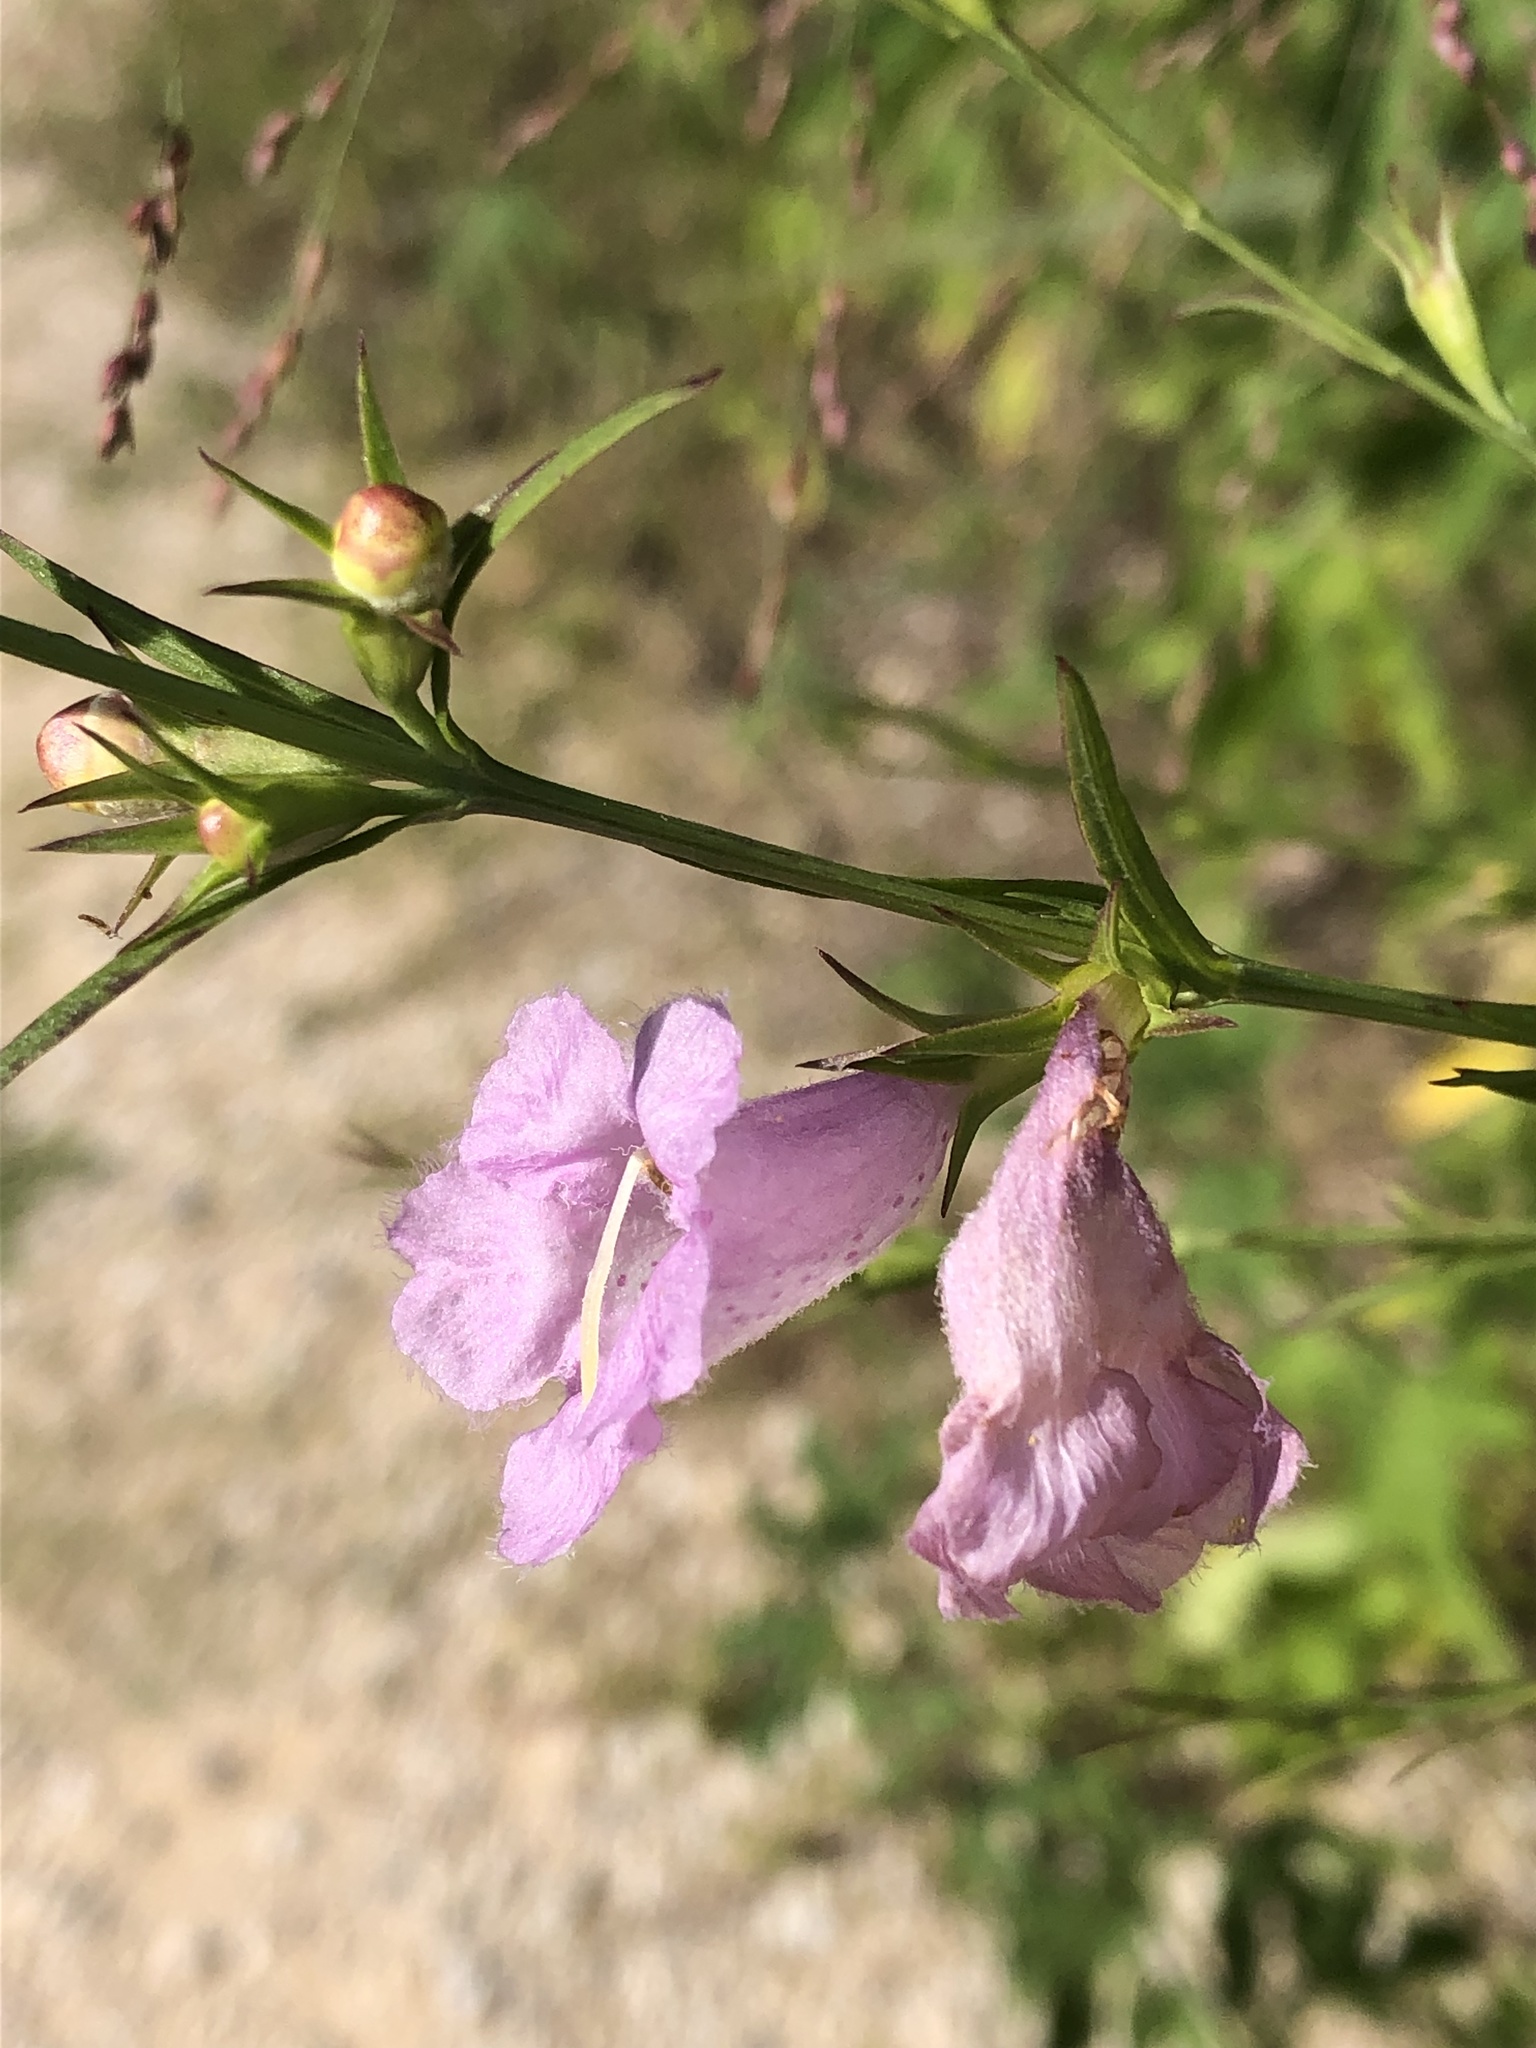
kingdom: Plantae
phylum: Tracheophyta
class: Magnoliopsida
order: Lamiales
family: Orobanchaceae
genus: Agalinis
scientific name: Agalinis heterophylla
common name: Prairie agalinis
